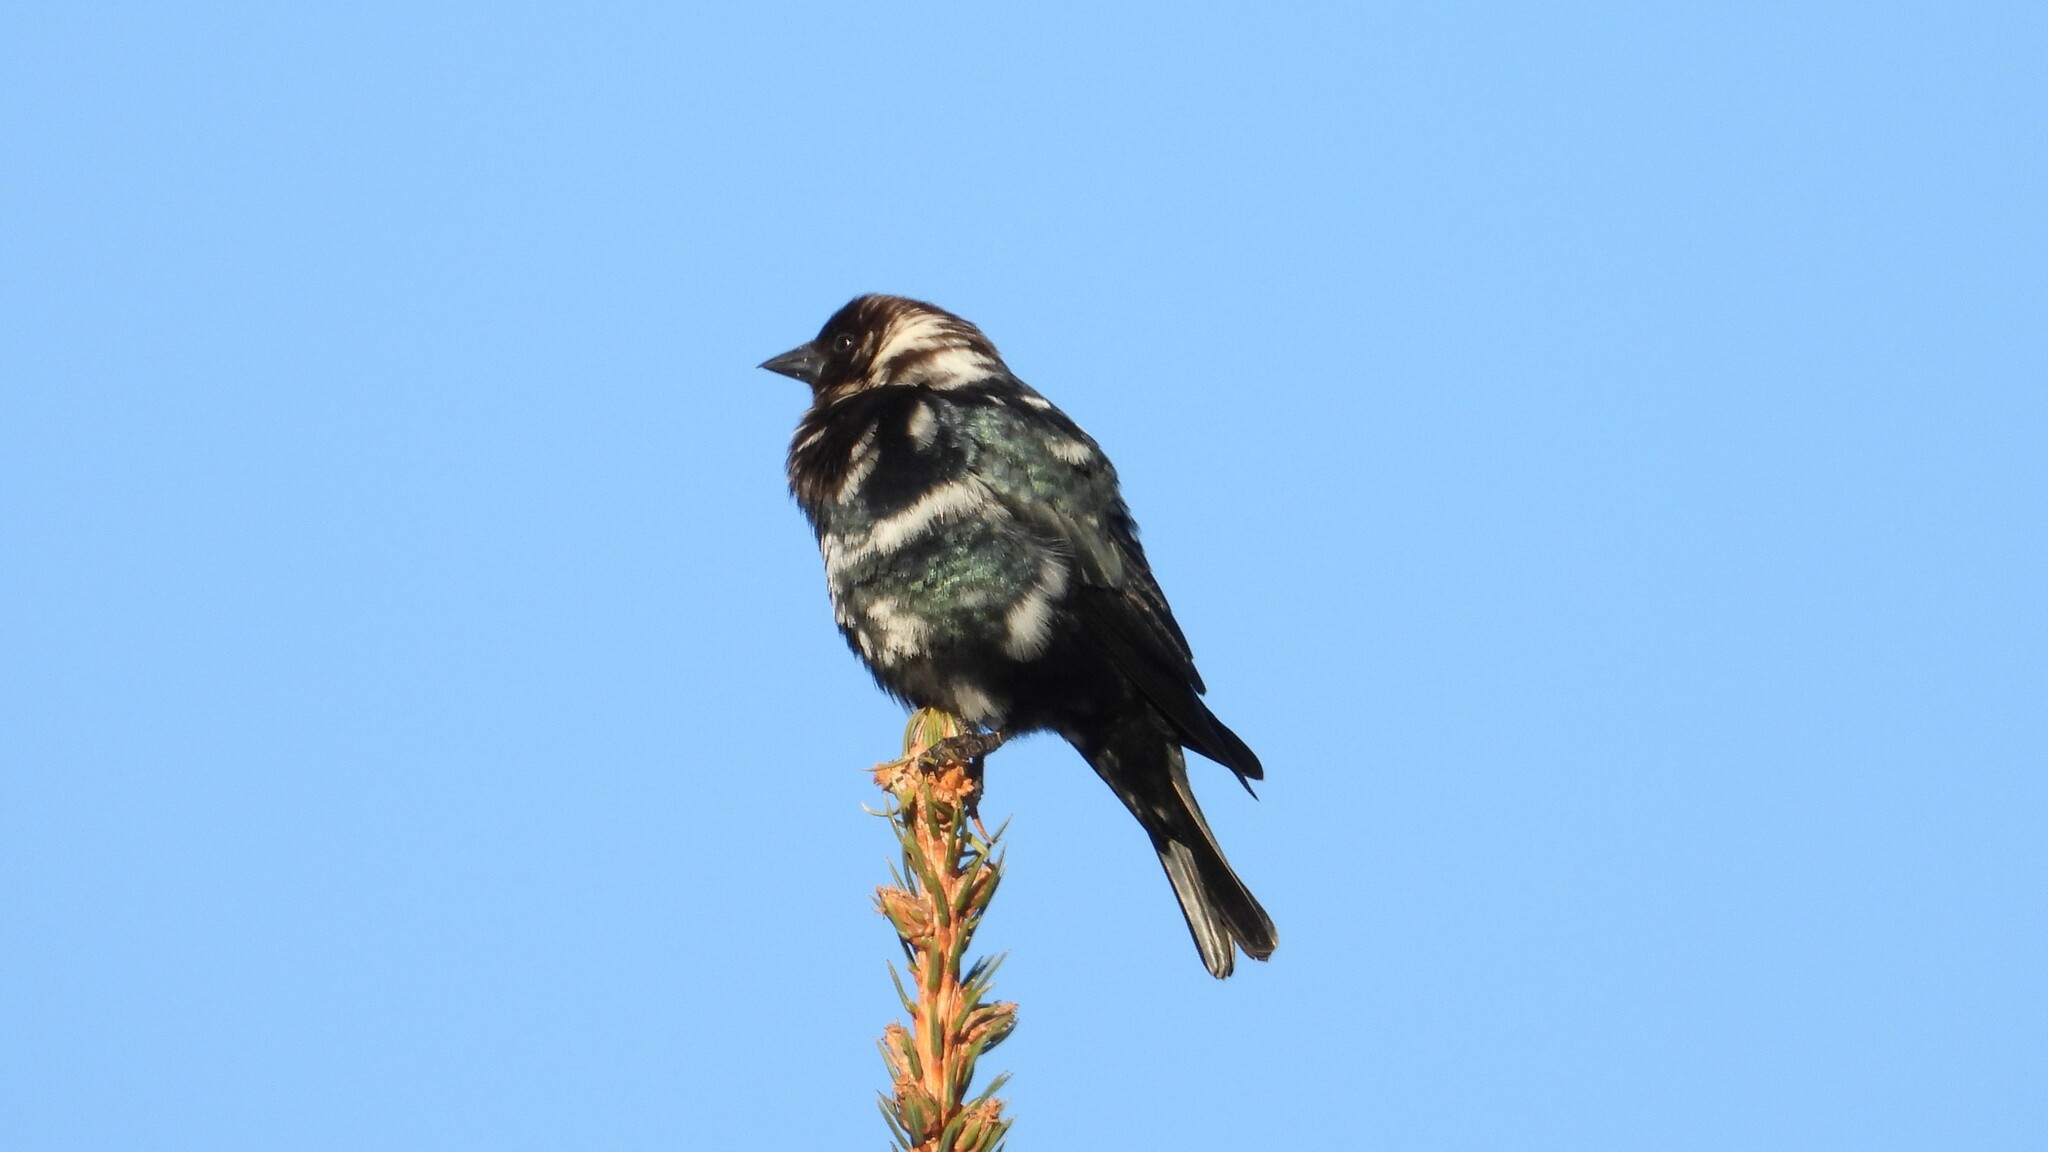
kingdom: Animalia
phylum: Chordata
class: Aves
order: Passeriformes
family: Icteridae
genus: Molothrus
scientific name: Molothrus ater
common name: Brown-headed cowbird
